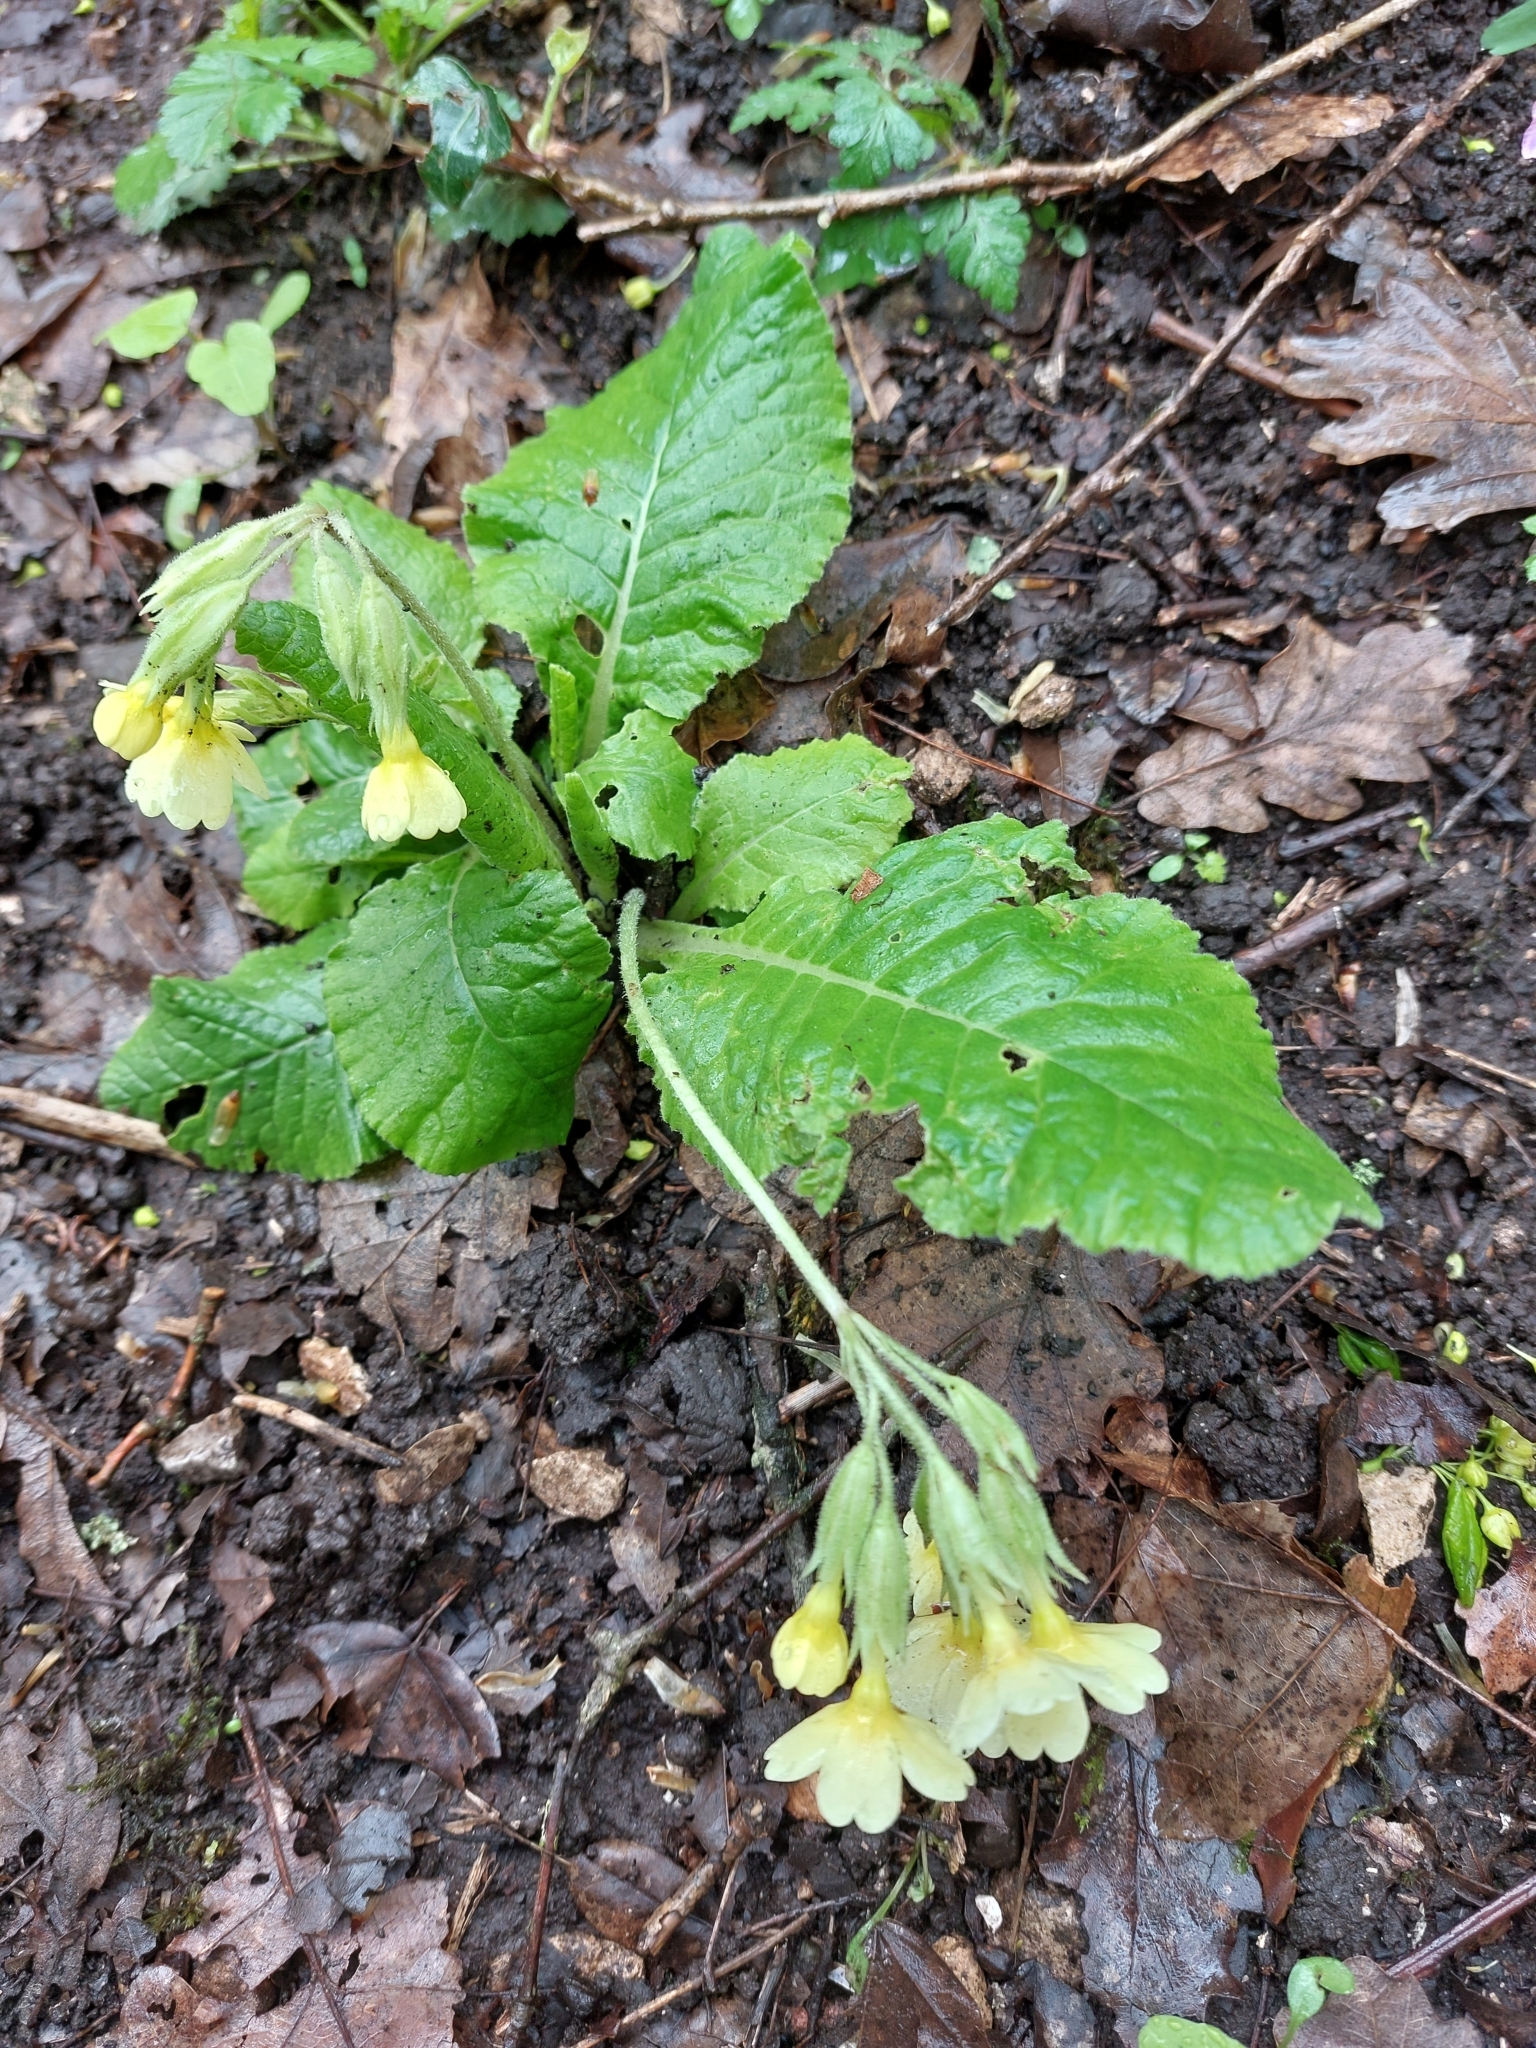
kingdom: Plantae
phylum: Tracheophyta
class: Magnoliopsida
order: Ericales
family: Primulaceae
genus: Primula
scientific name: Primula elatior
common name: Oxlip
